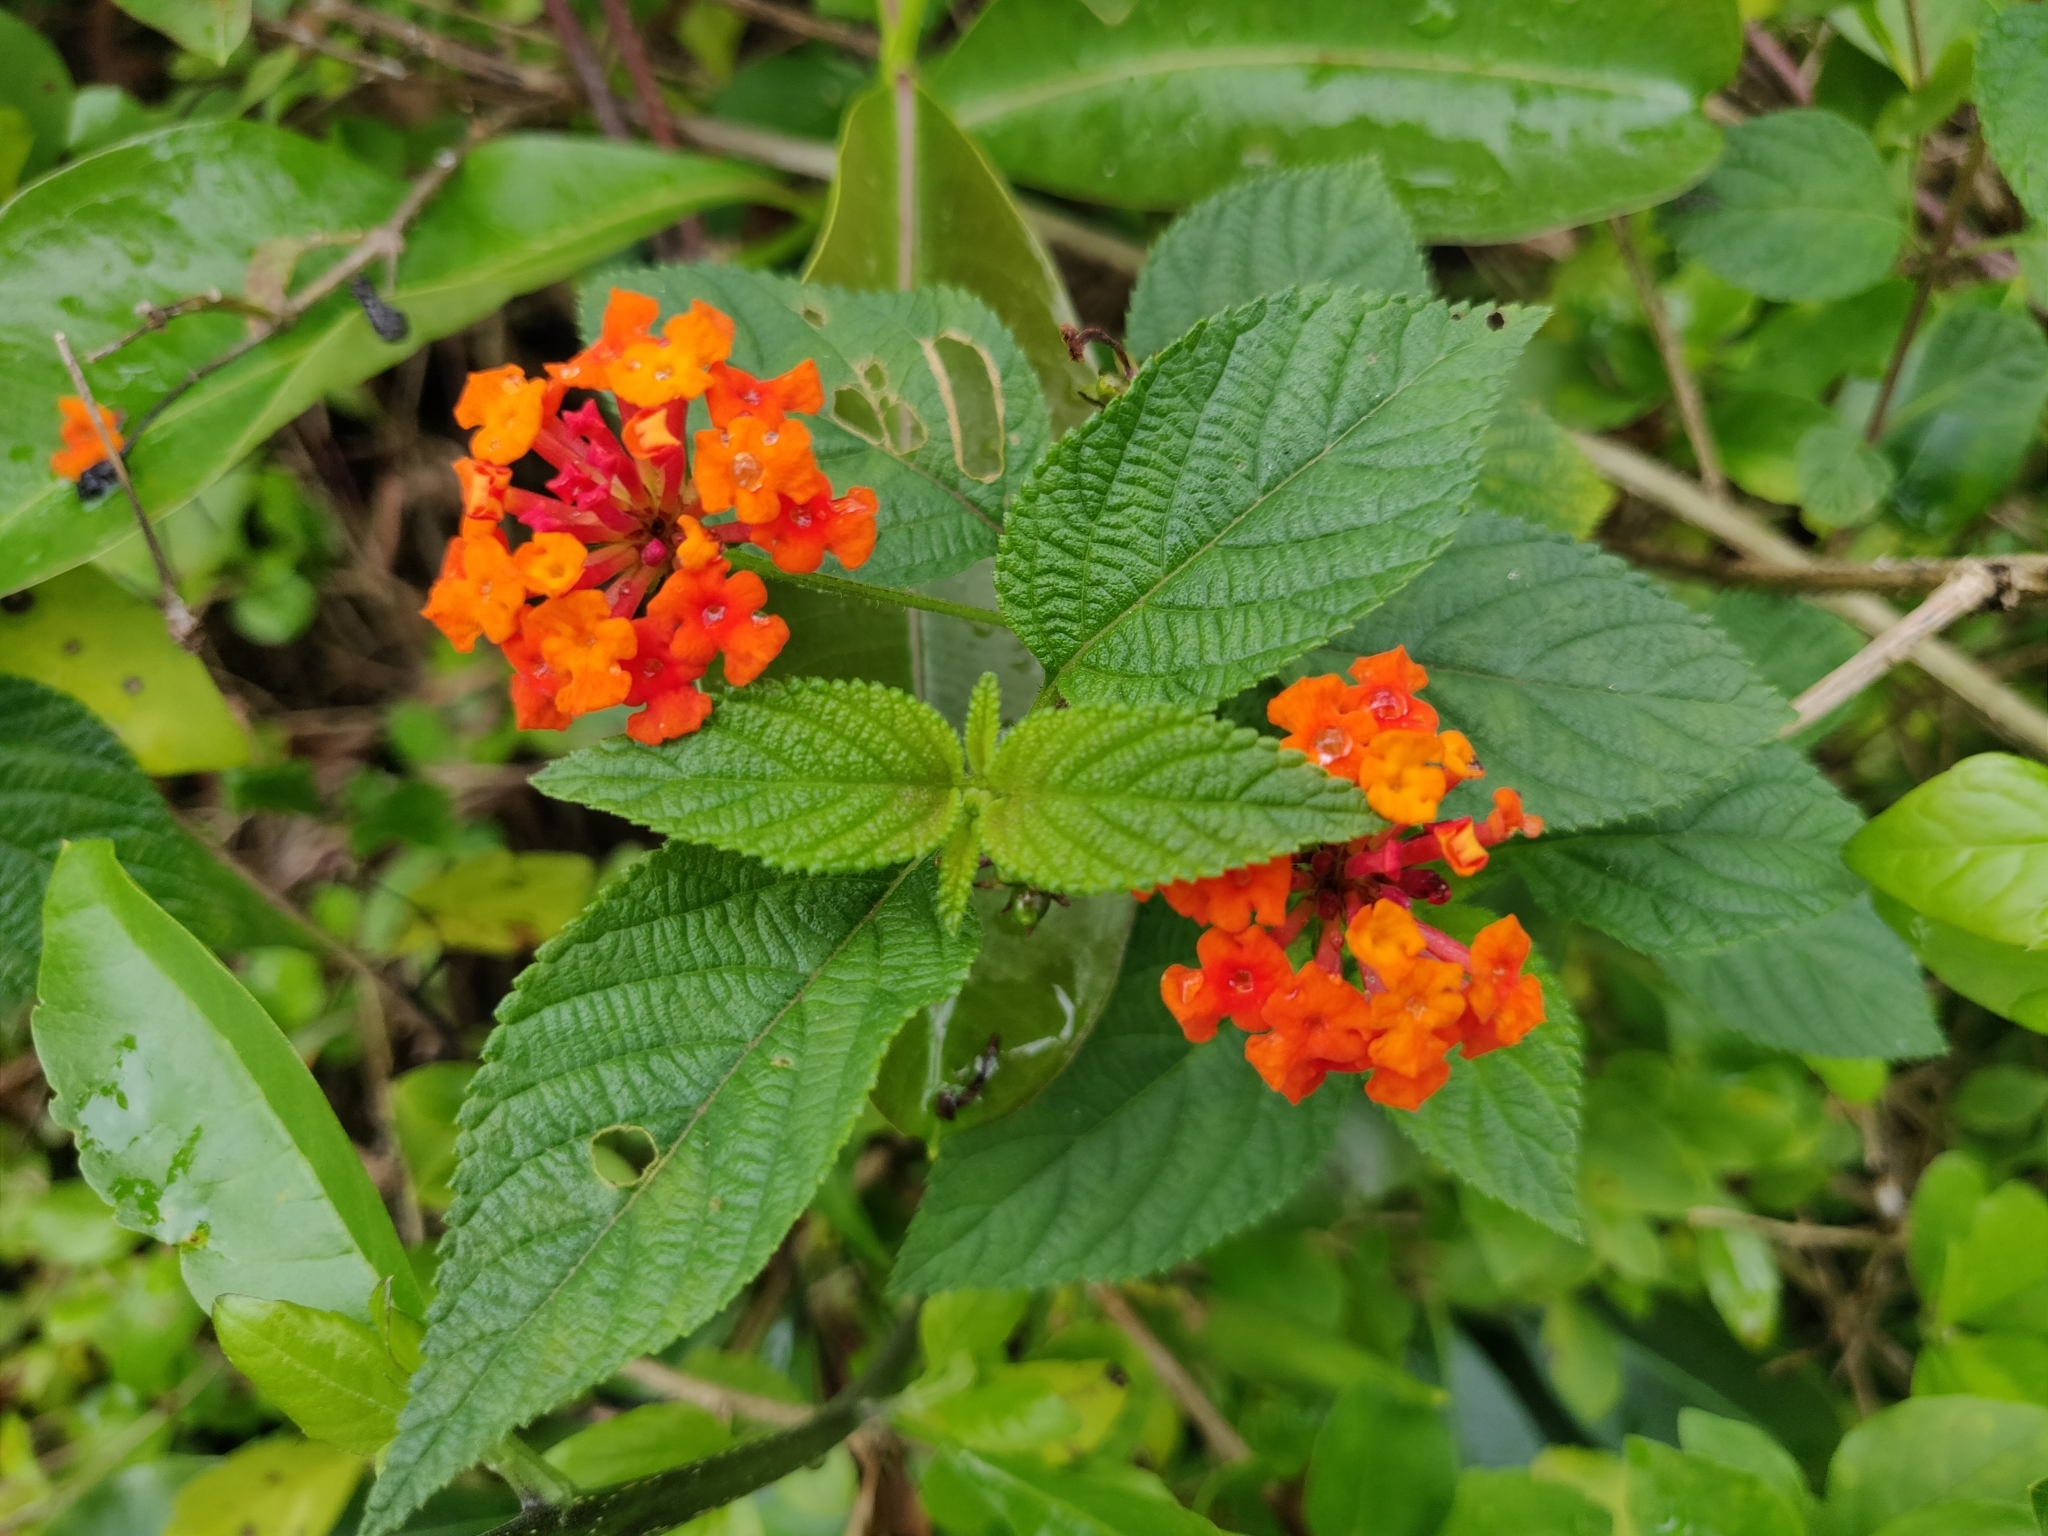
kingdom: Plantae
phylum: Tracheophyta
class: Magnoliopsida
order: Lamiales
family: Verbenaceae
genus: Lantana
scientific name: Lantana camara
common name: Lantana
